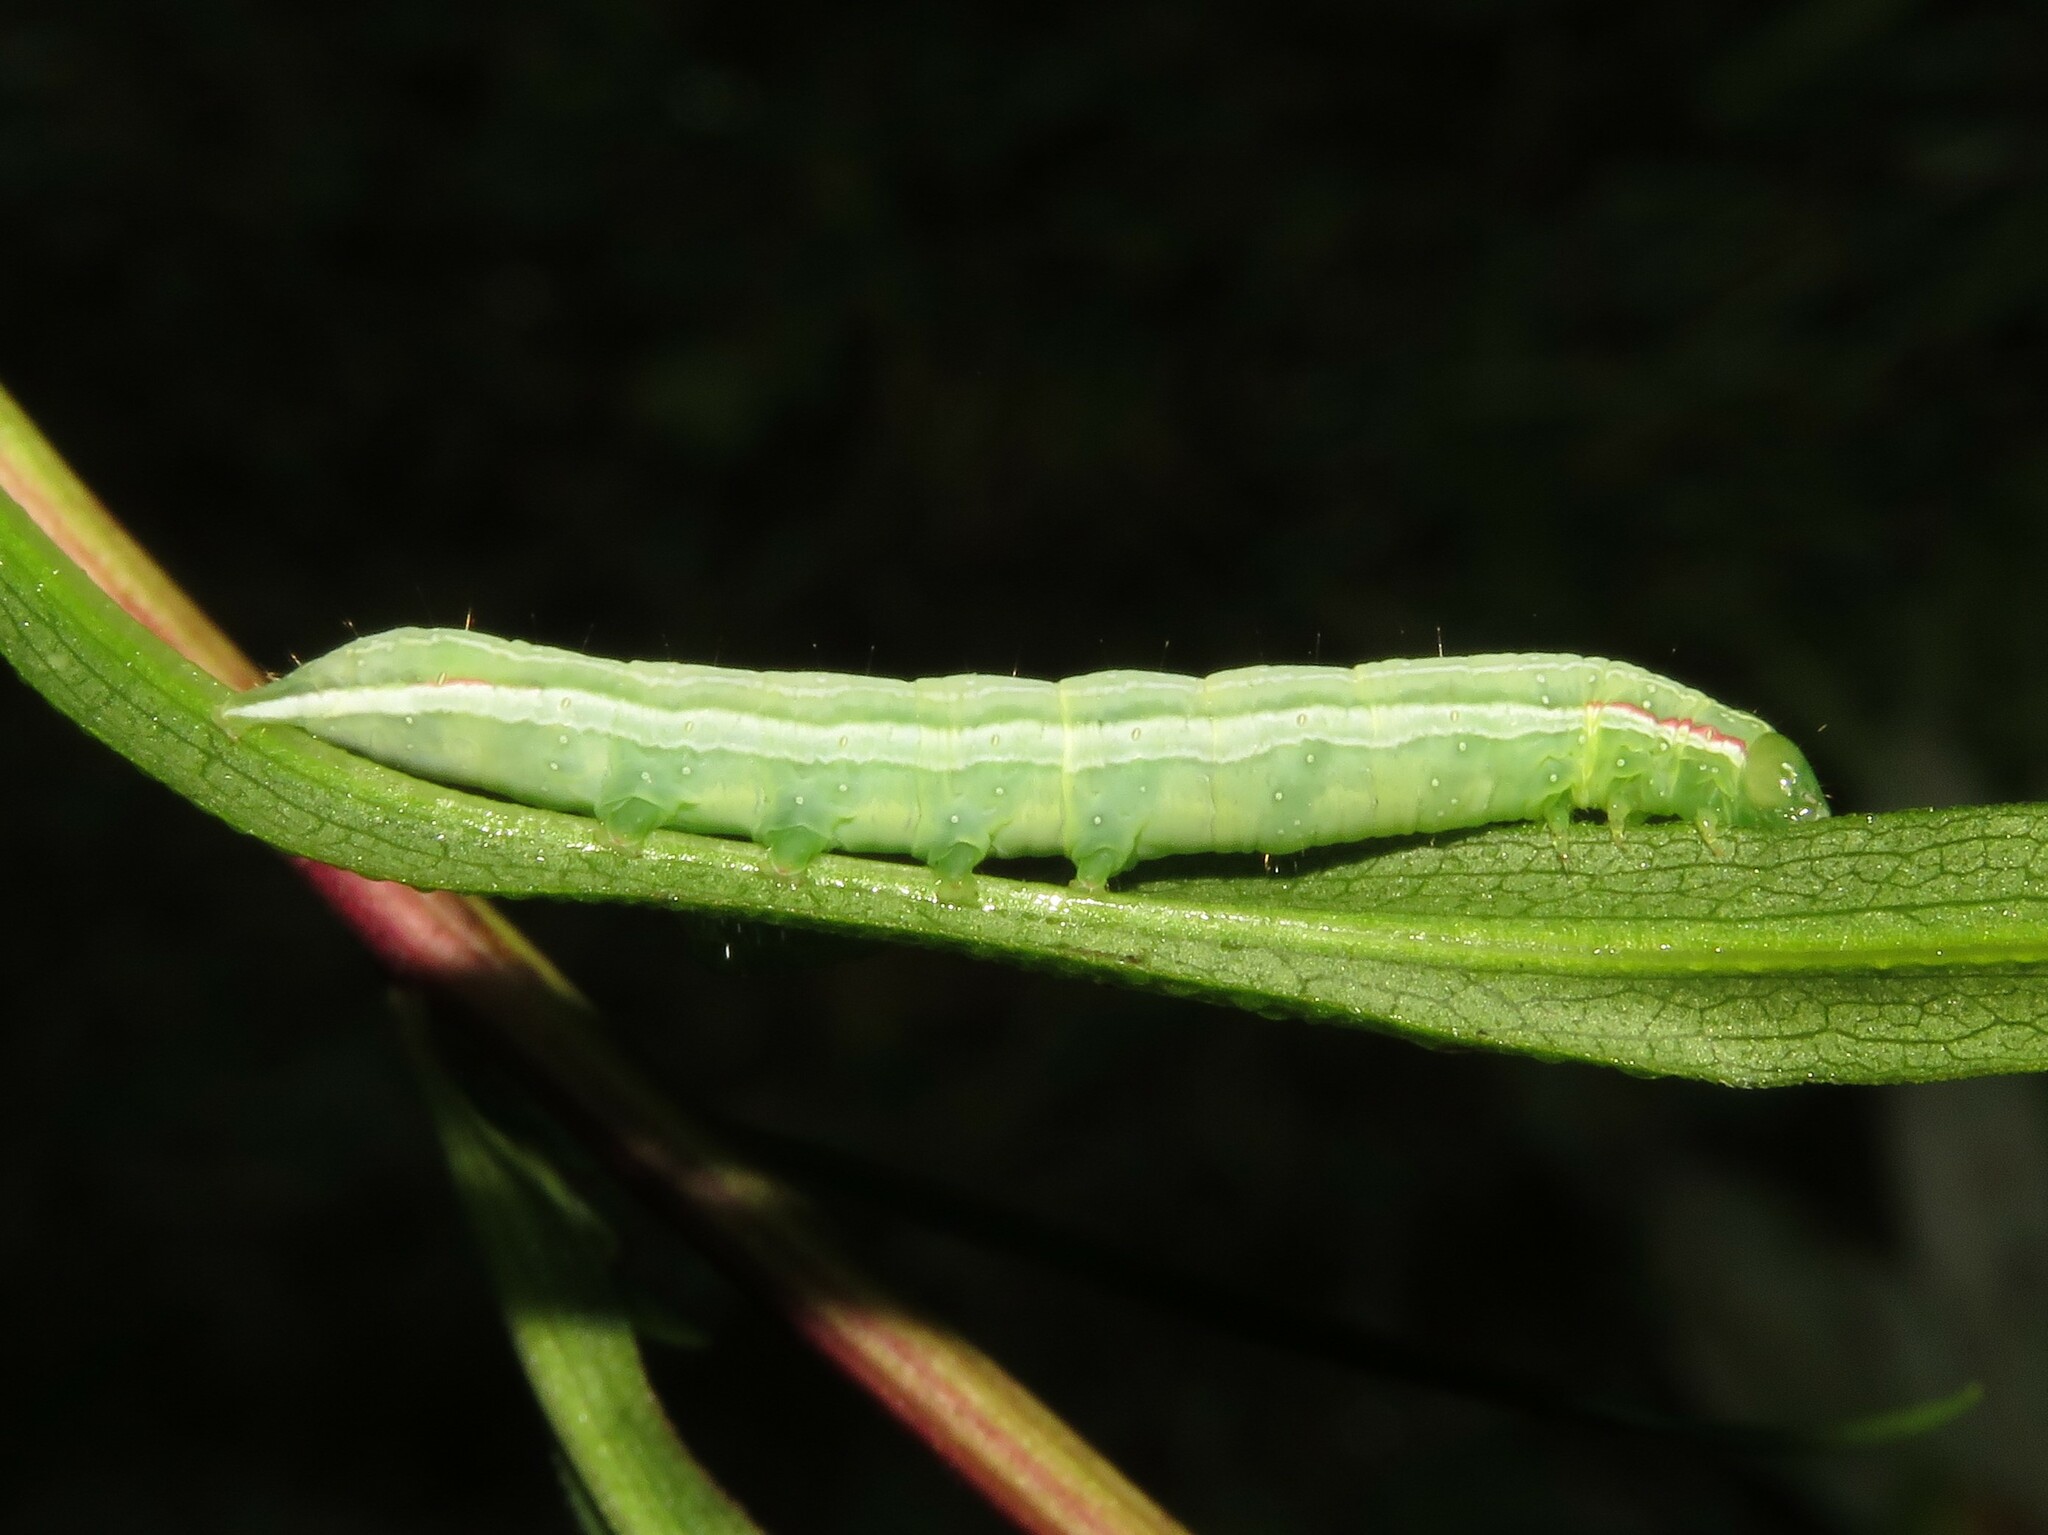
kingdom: Animalia
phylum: Arthropoda
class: Insecta
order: Lepidoptera
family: Noctuidae
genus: Leuconycta
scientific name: Leuconycta diphteroides
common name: Green leuconycta moth
